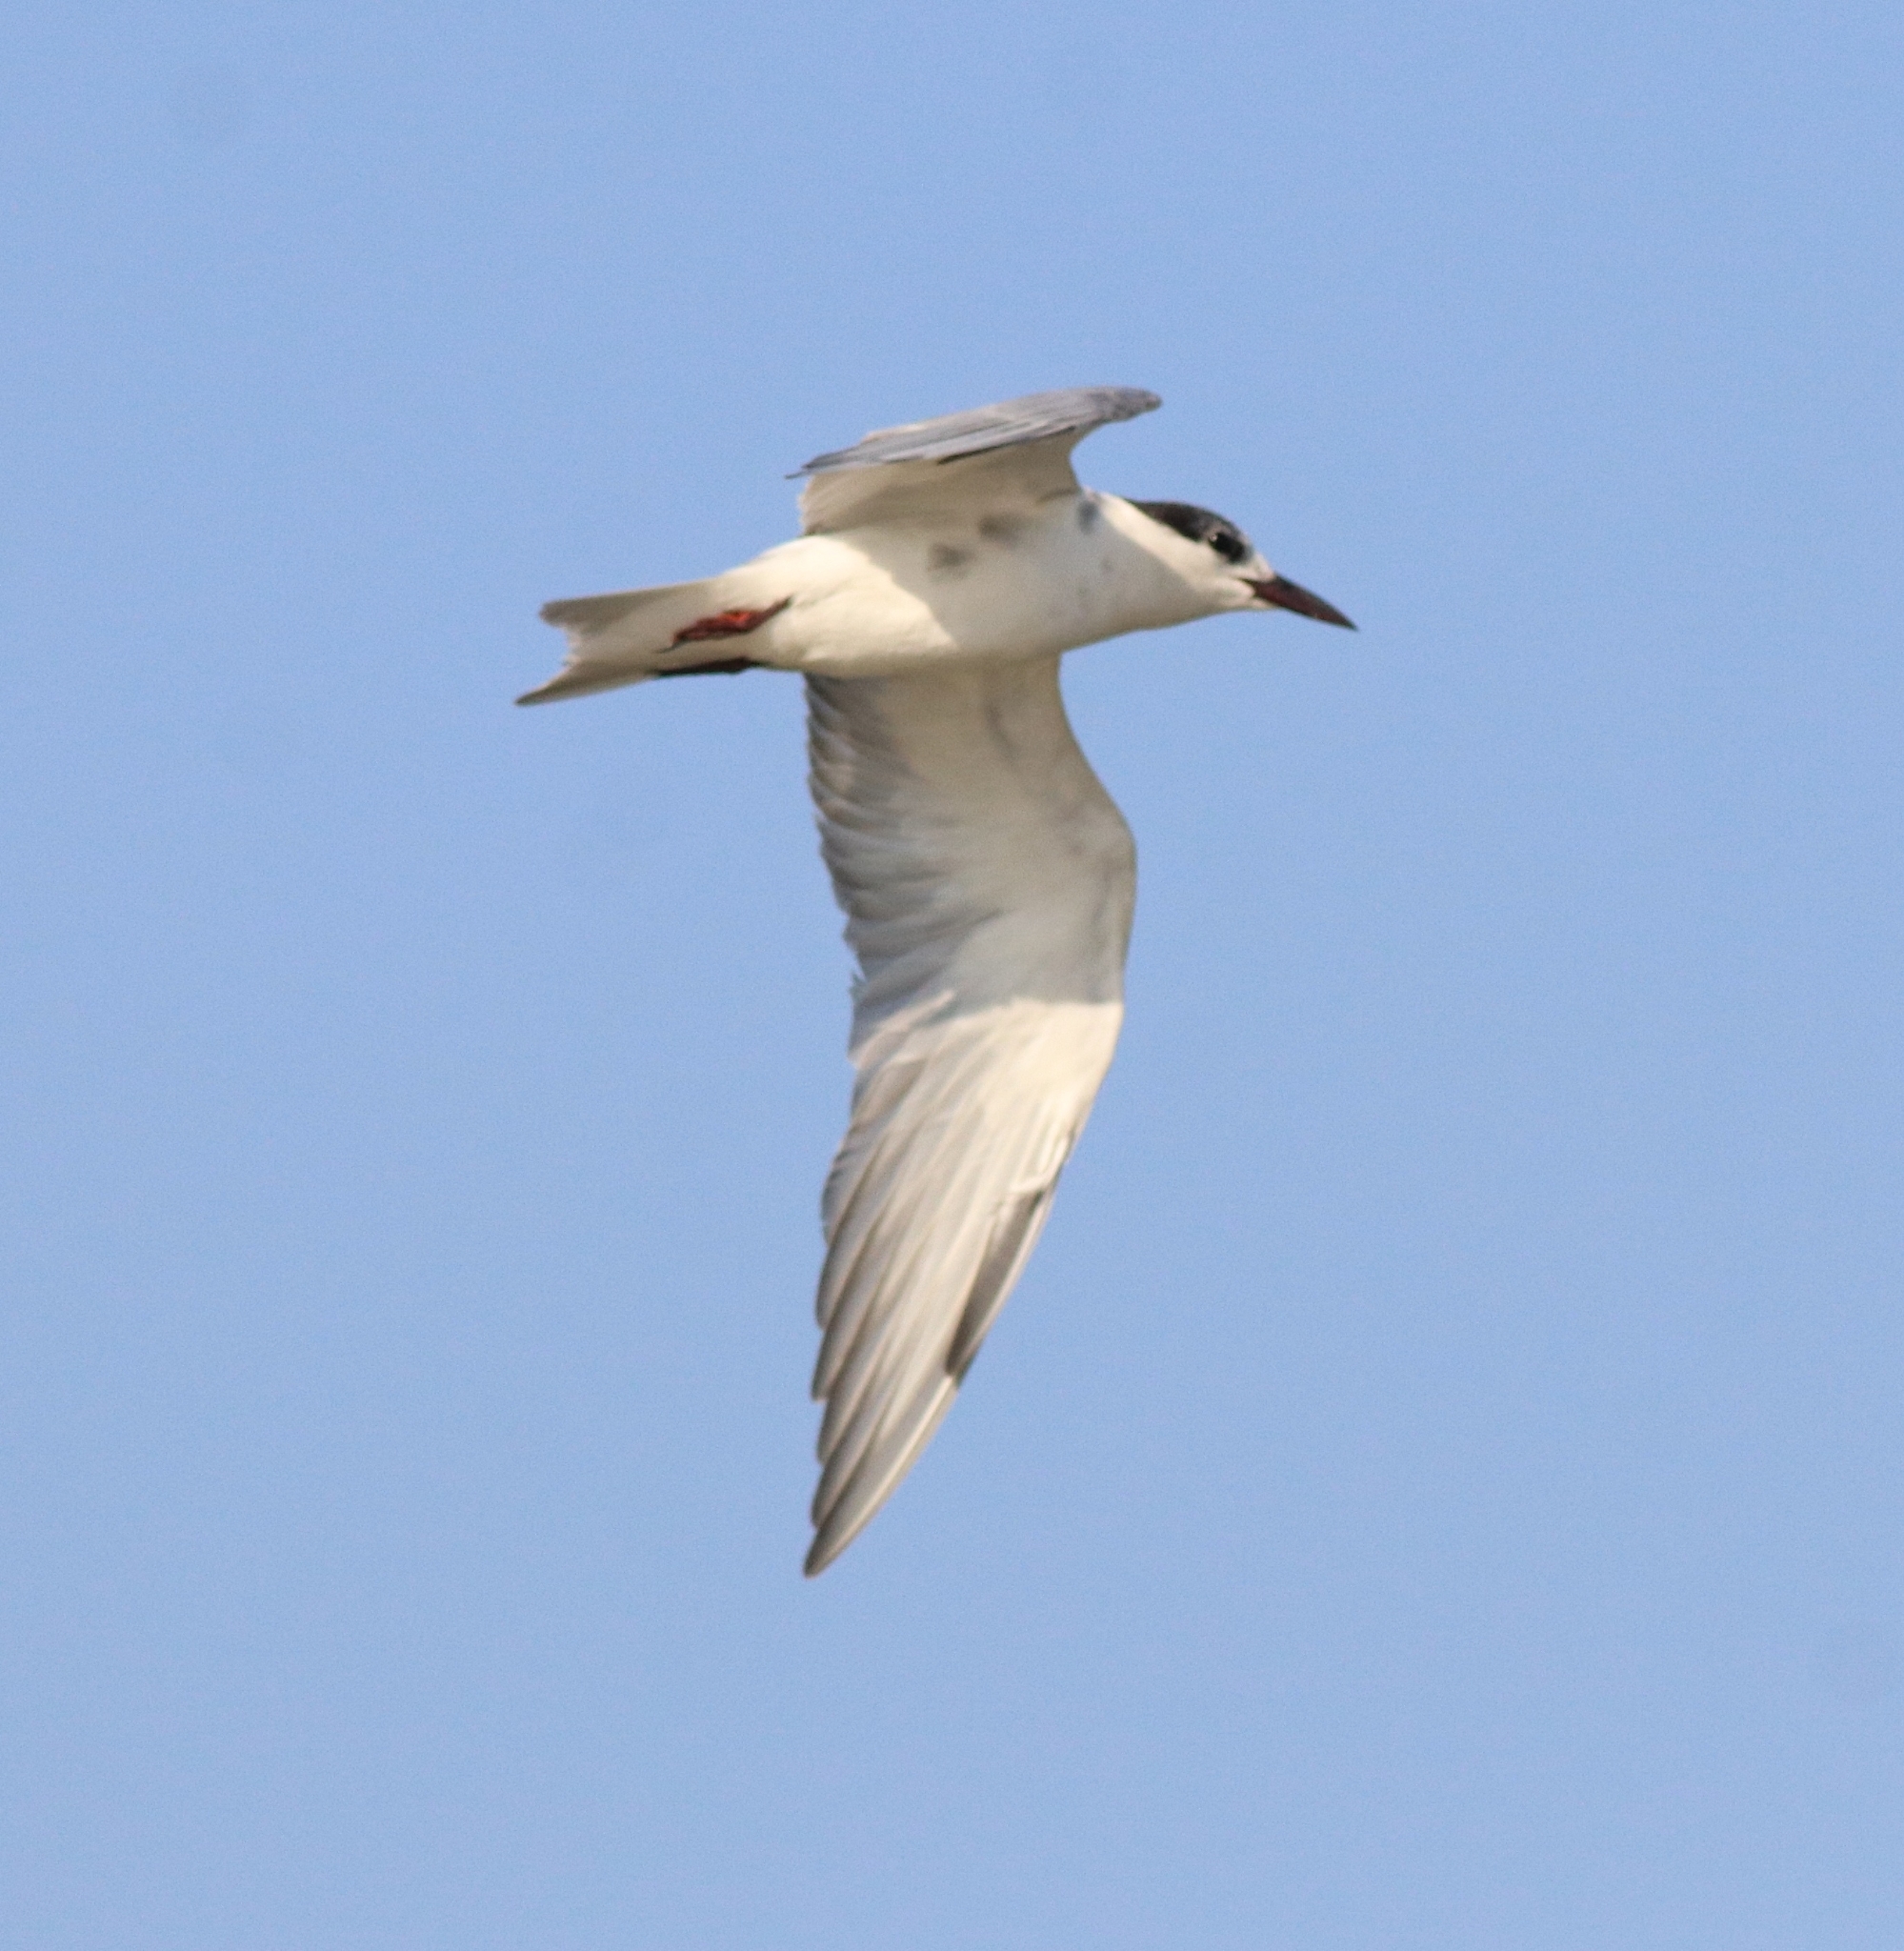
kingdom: Animalia
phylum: Chordata
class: Aves
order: Charadriiformes
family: Laridae
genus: Chlidonias
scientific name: Chlidonias hybrida
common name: Whiskered tern
